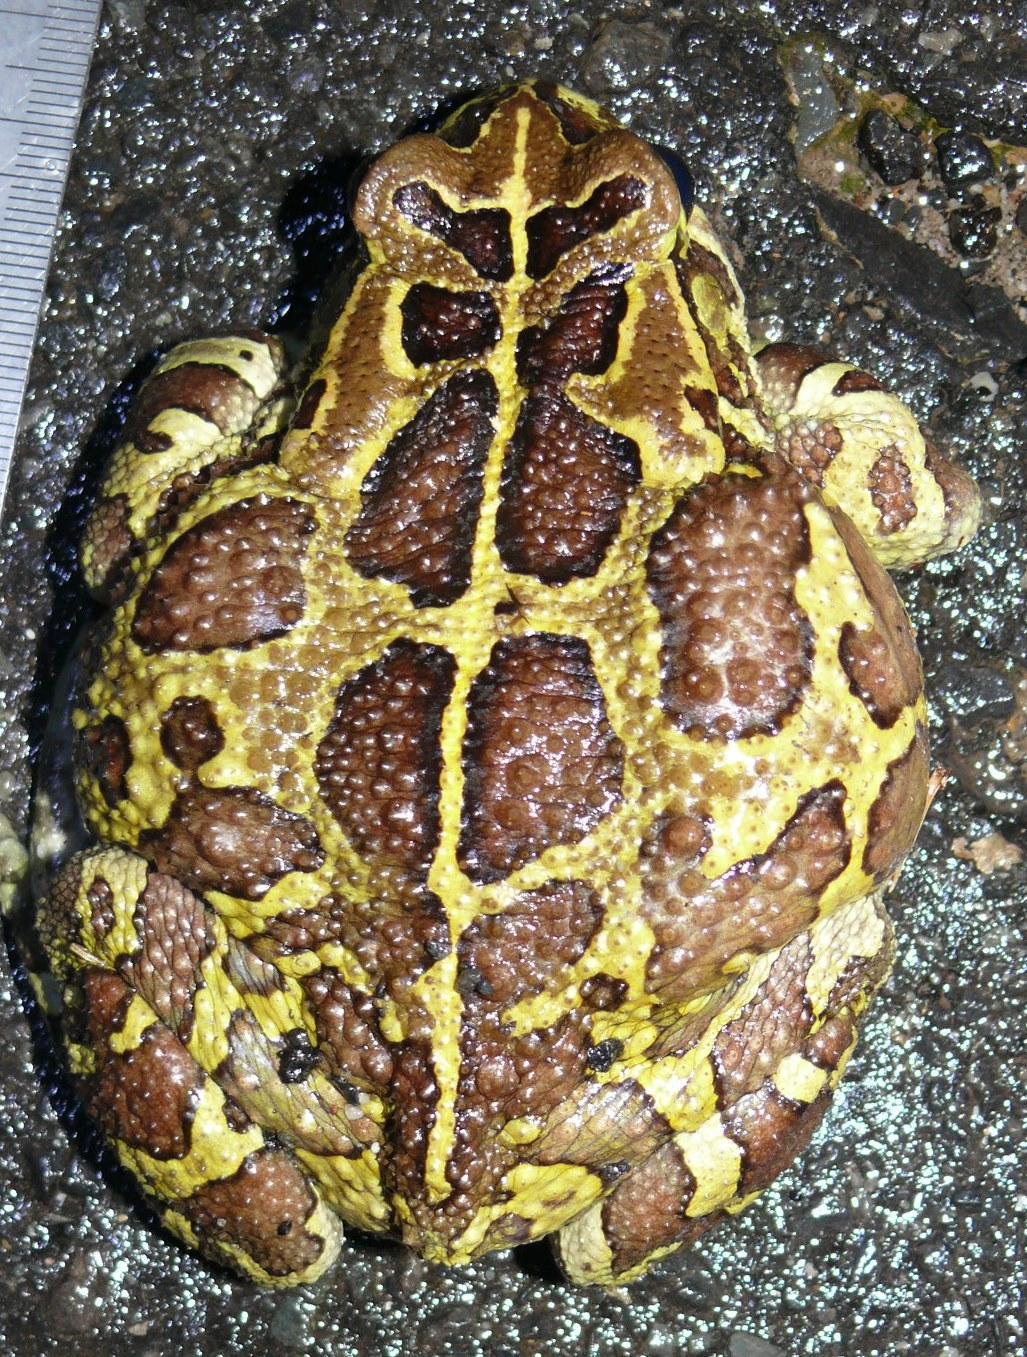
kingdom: Animalia
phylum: Chordata
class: Amphibia
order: Anura
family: Bufonidae
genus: Sclerophrys
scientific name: Sclerophrys pantherina
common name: Panther toad
